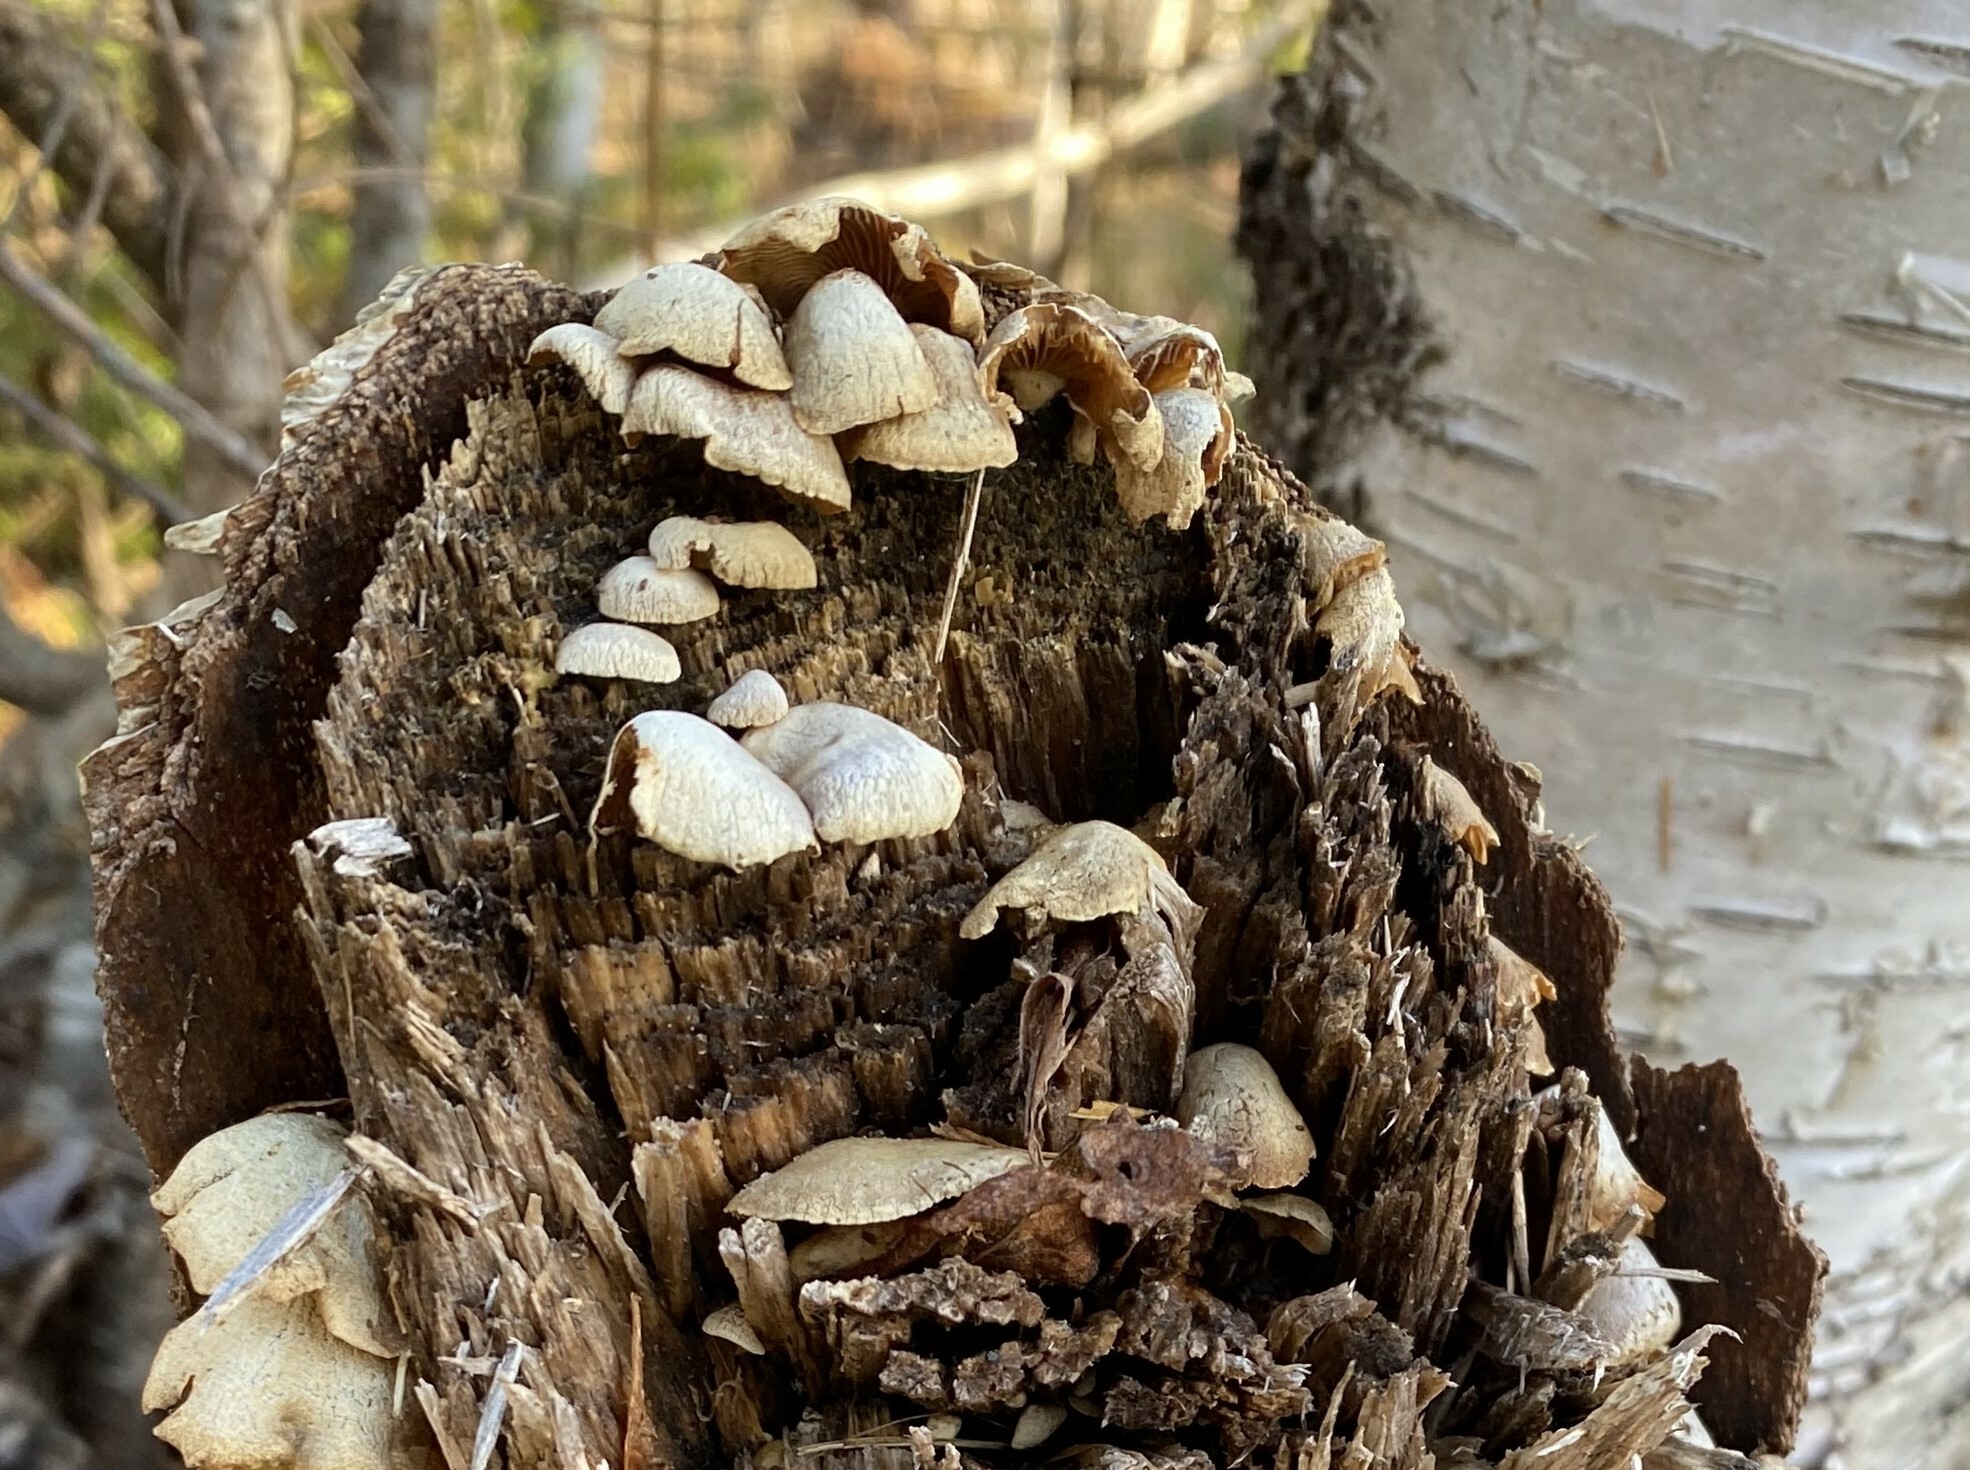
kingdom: Fungi
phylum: Basidiomycota
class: Agaricomycetes
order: Agaricales
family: Mycenaceae
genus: Panellus
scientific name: Panellus stipticus
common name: Bitter oysterling
